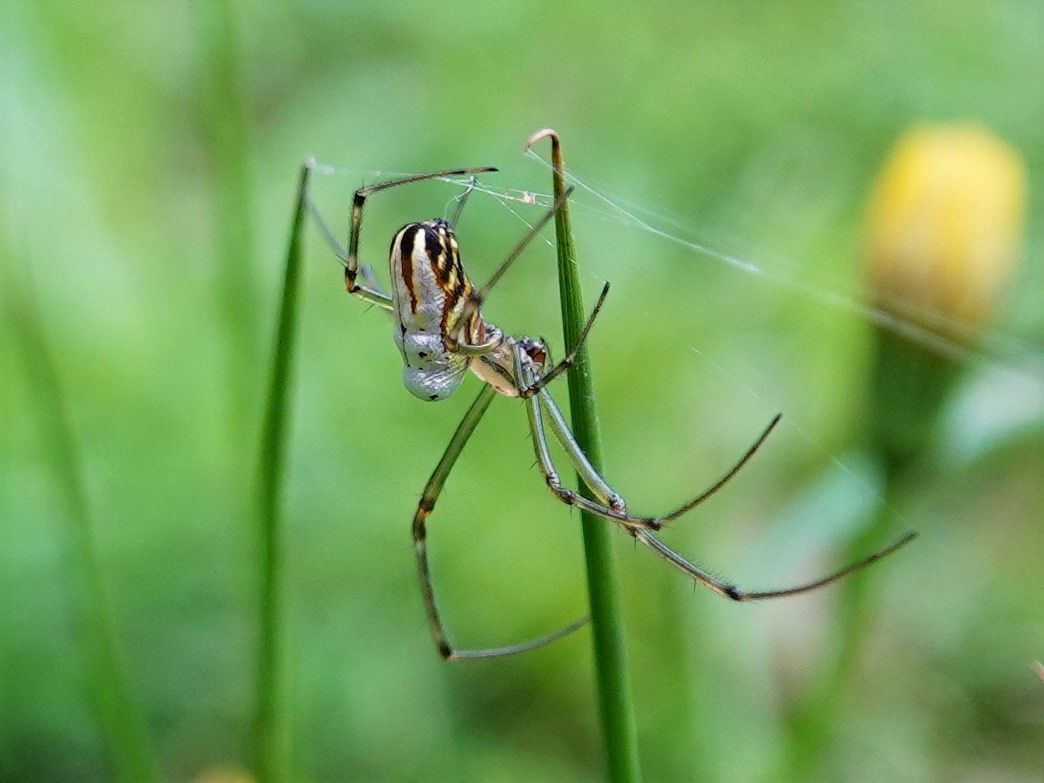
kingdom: Animalia
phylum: Arthropoda
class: Arachnida
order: Araneae
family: Tetragnathidae
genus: Leucauge
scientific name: Leucauge dromedaria
